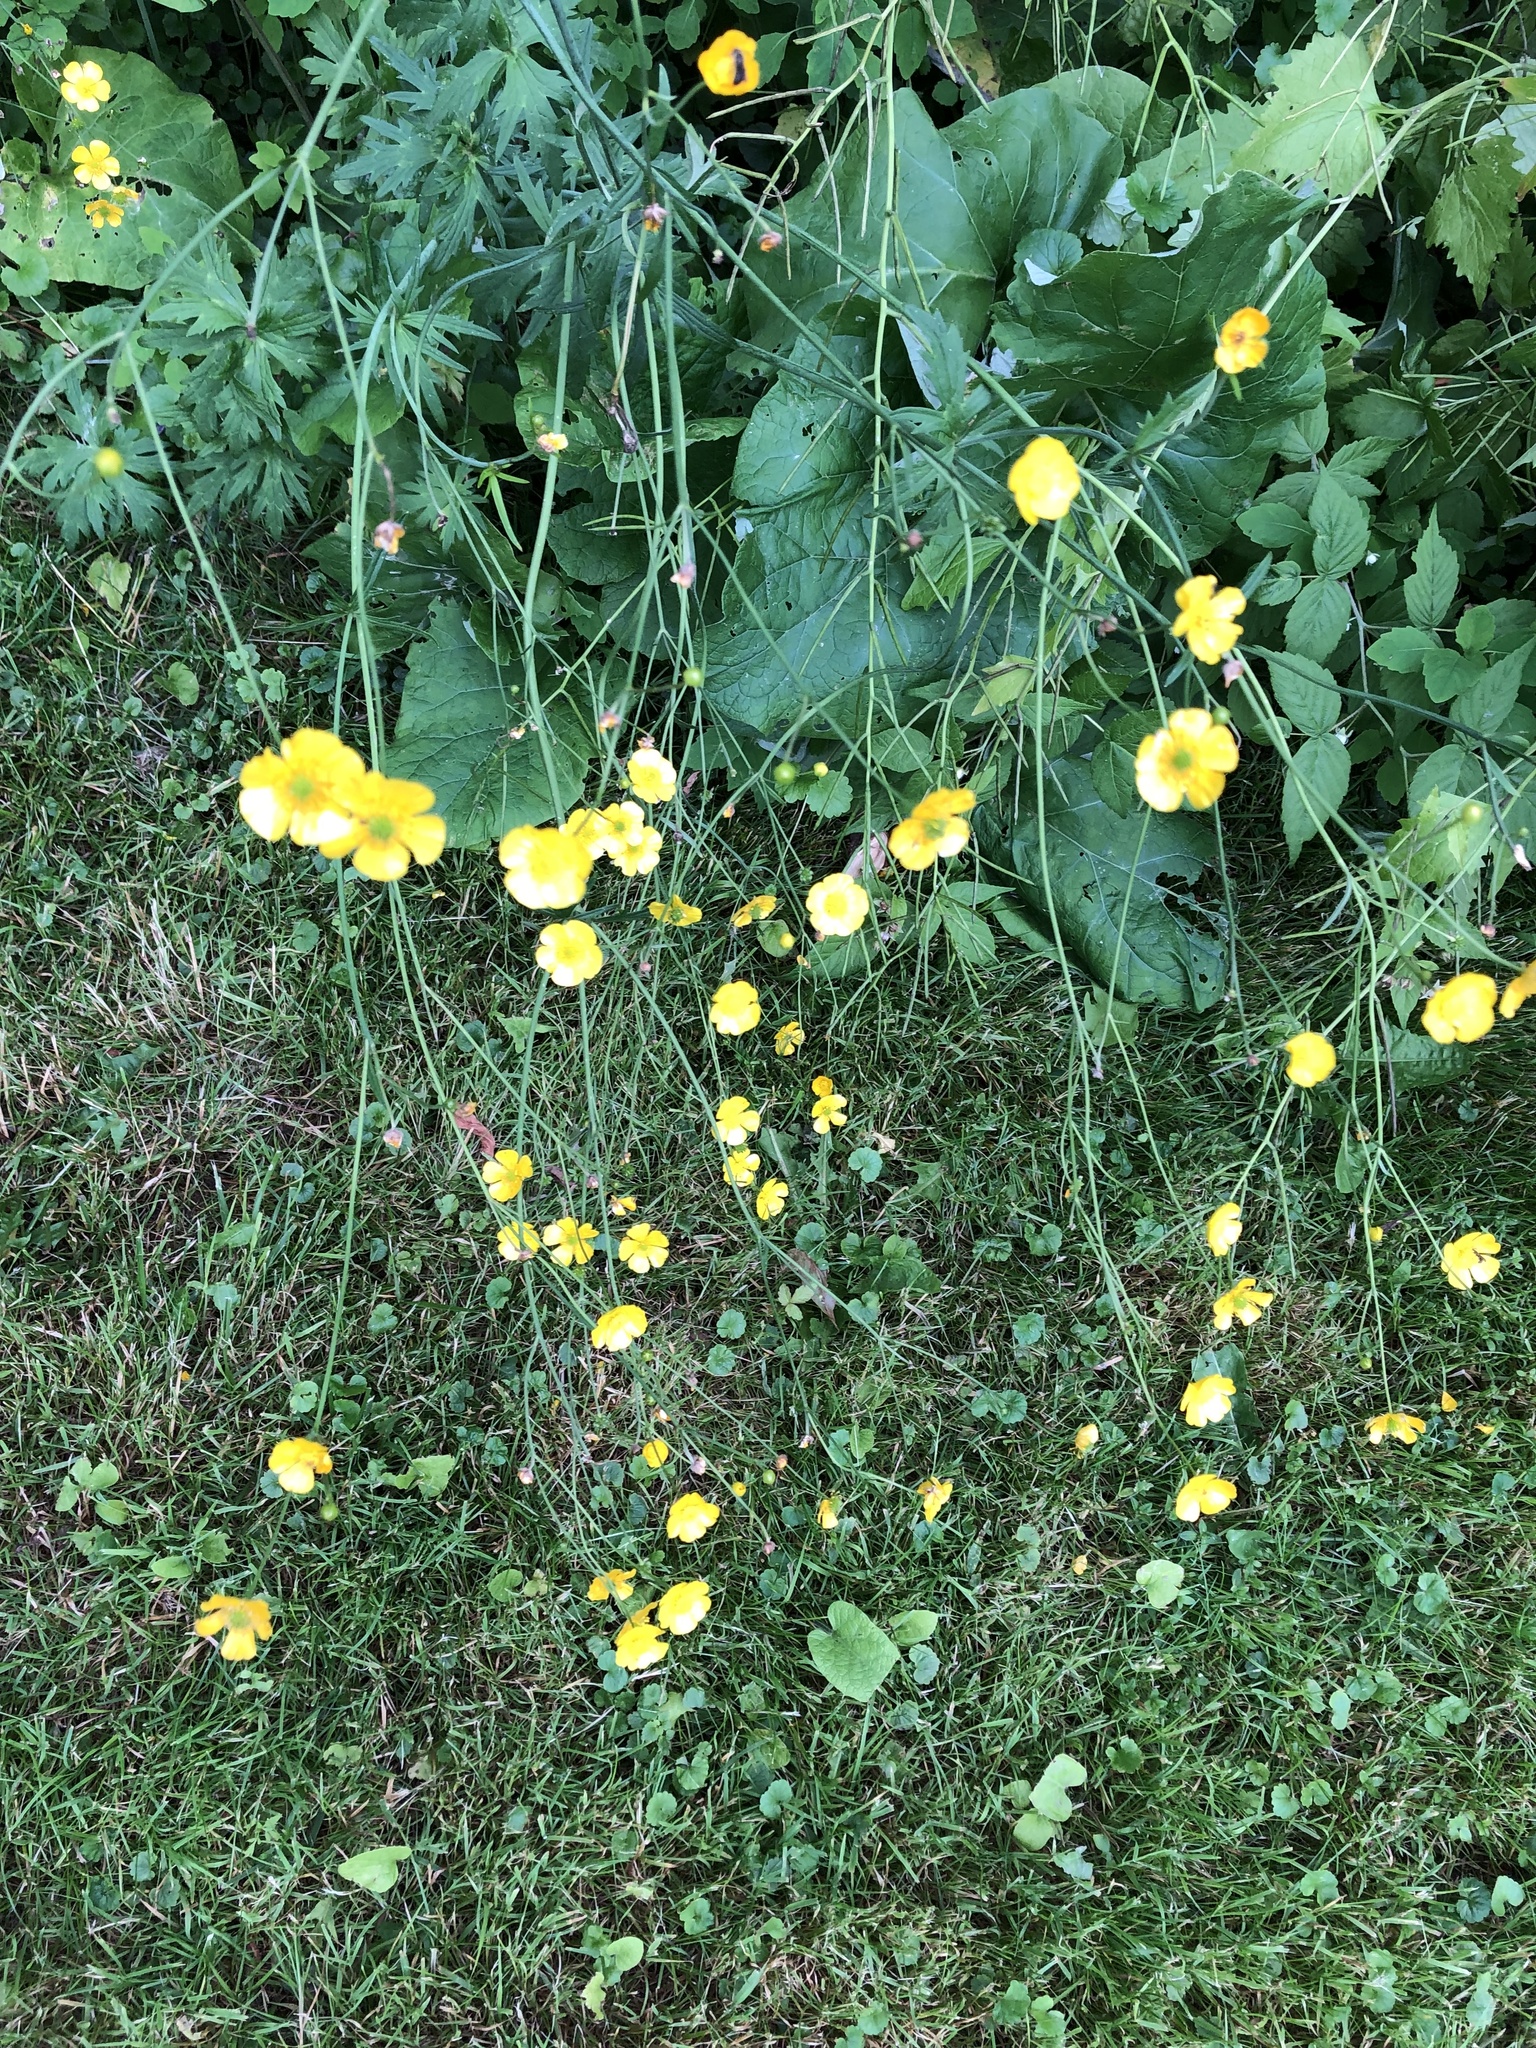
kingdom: Plantae
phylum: Tracheophyta
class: Magnoliopsida
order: Ranunculales
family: Ranunculaceae
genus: Ranunculus
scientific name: Ranunculus acris
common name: Meadow buttercup
